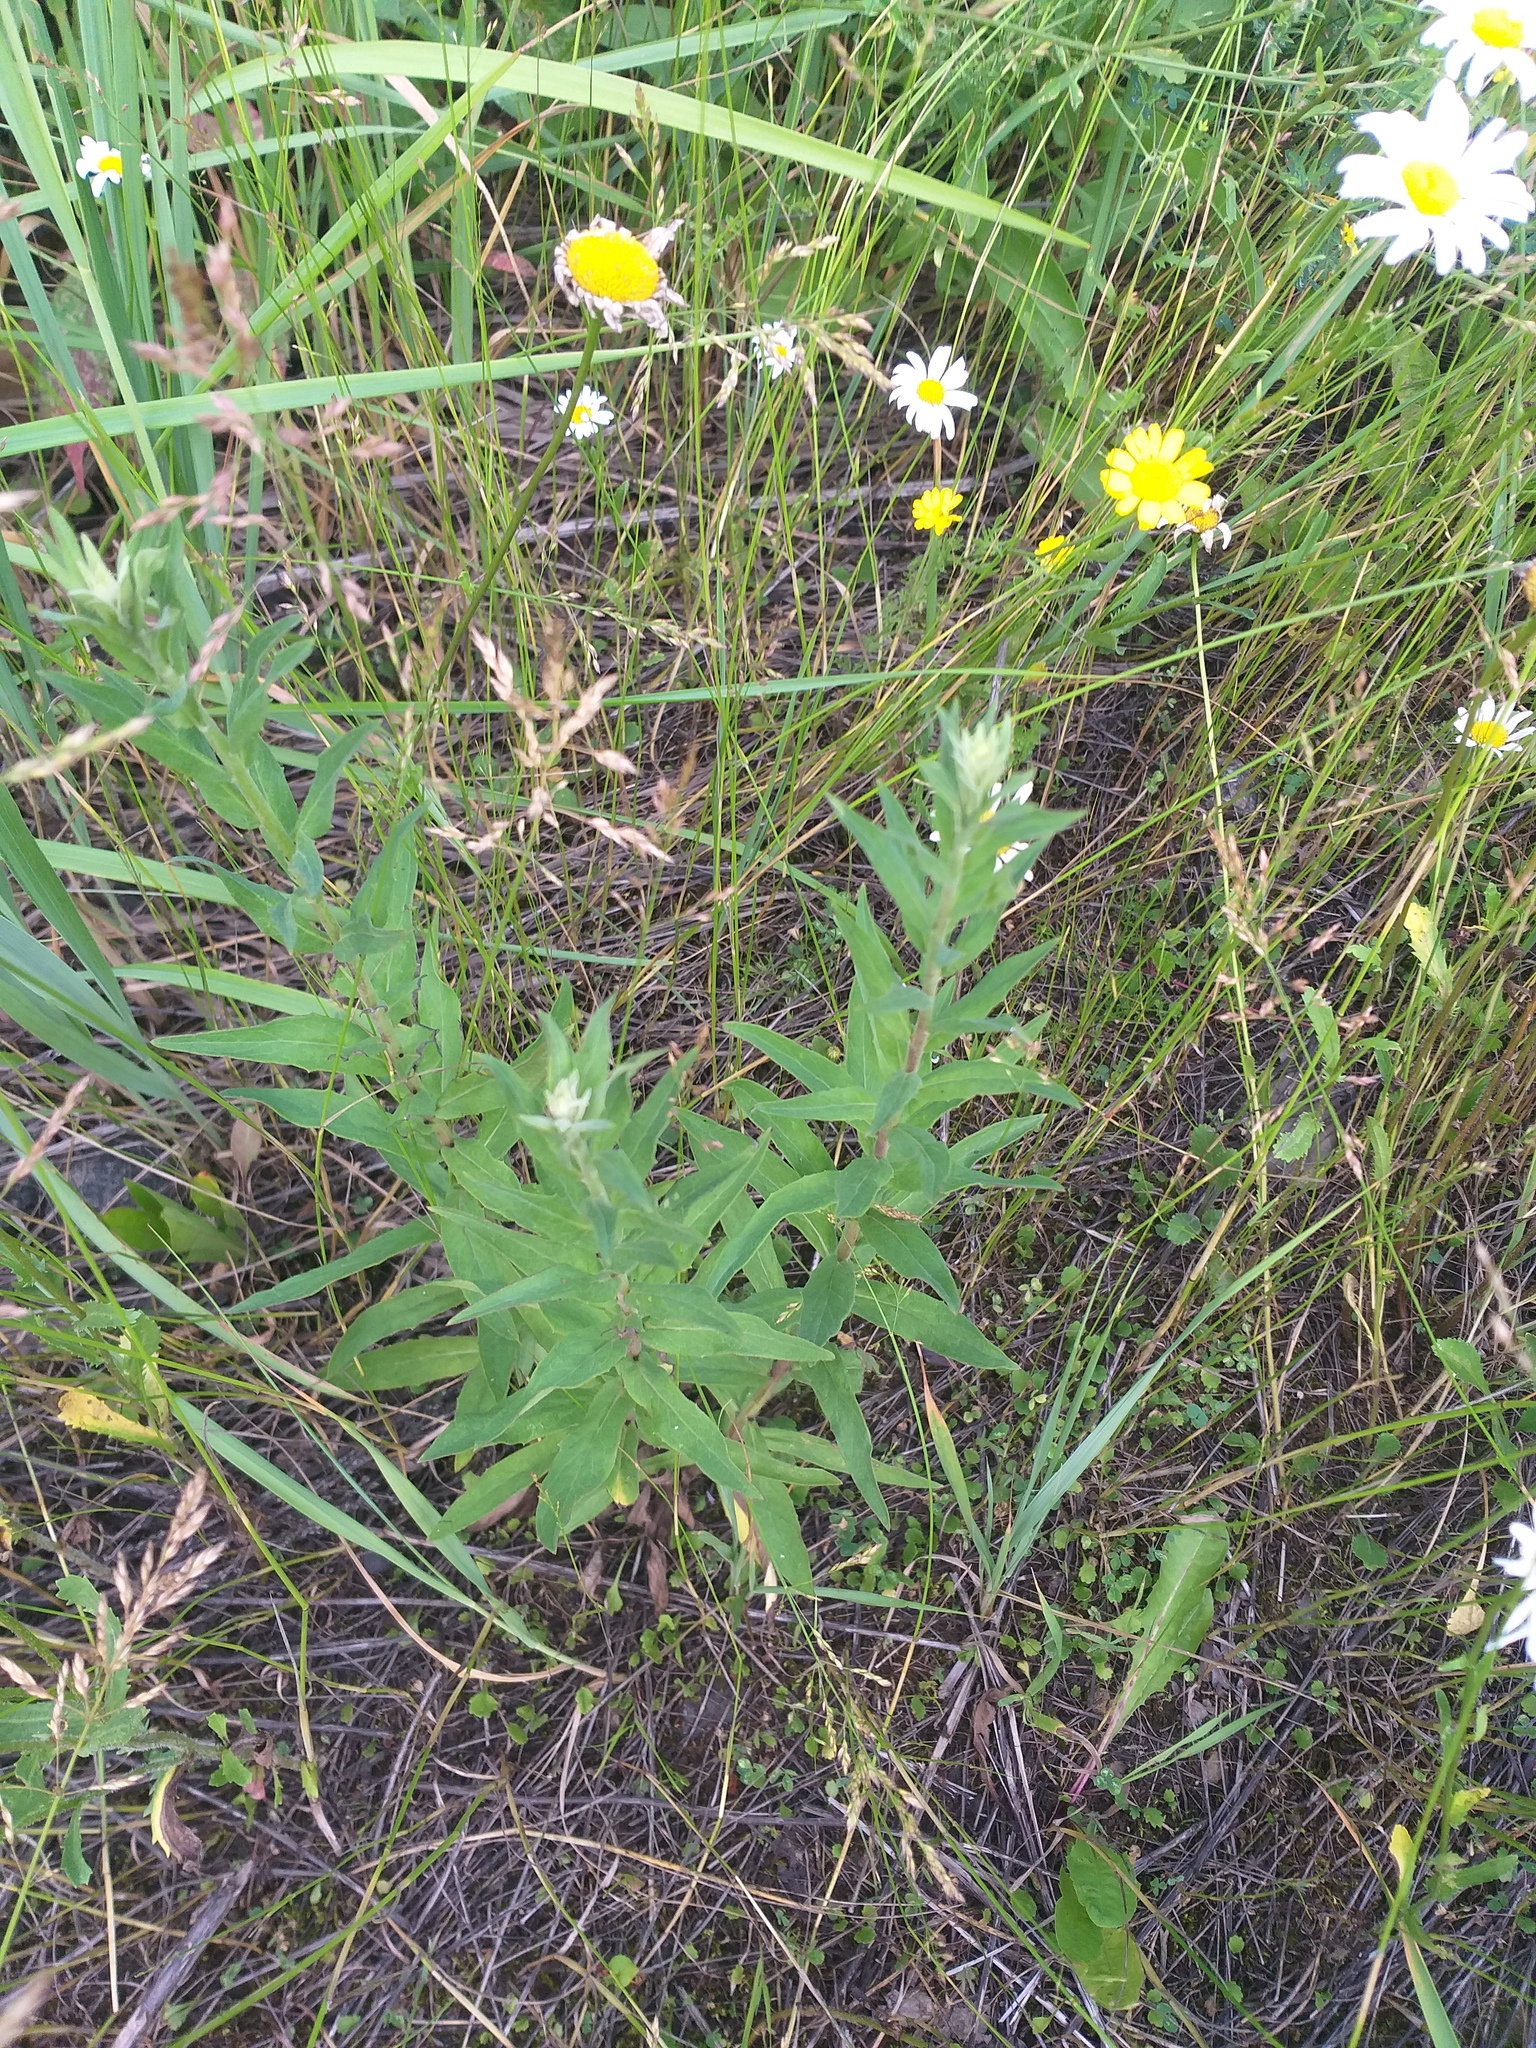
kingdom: Plantae
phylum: Tracheophyta
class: Magnoliopsida
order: Asterales
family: Asteraceae
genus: Hieracium
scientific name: Hieracium umbellatum
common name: Northern hawkweed
